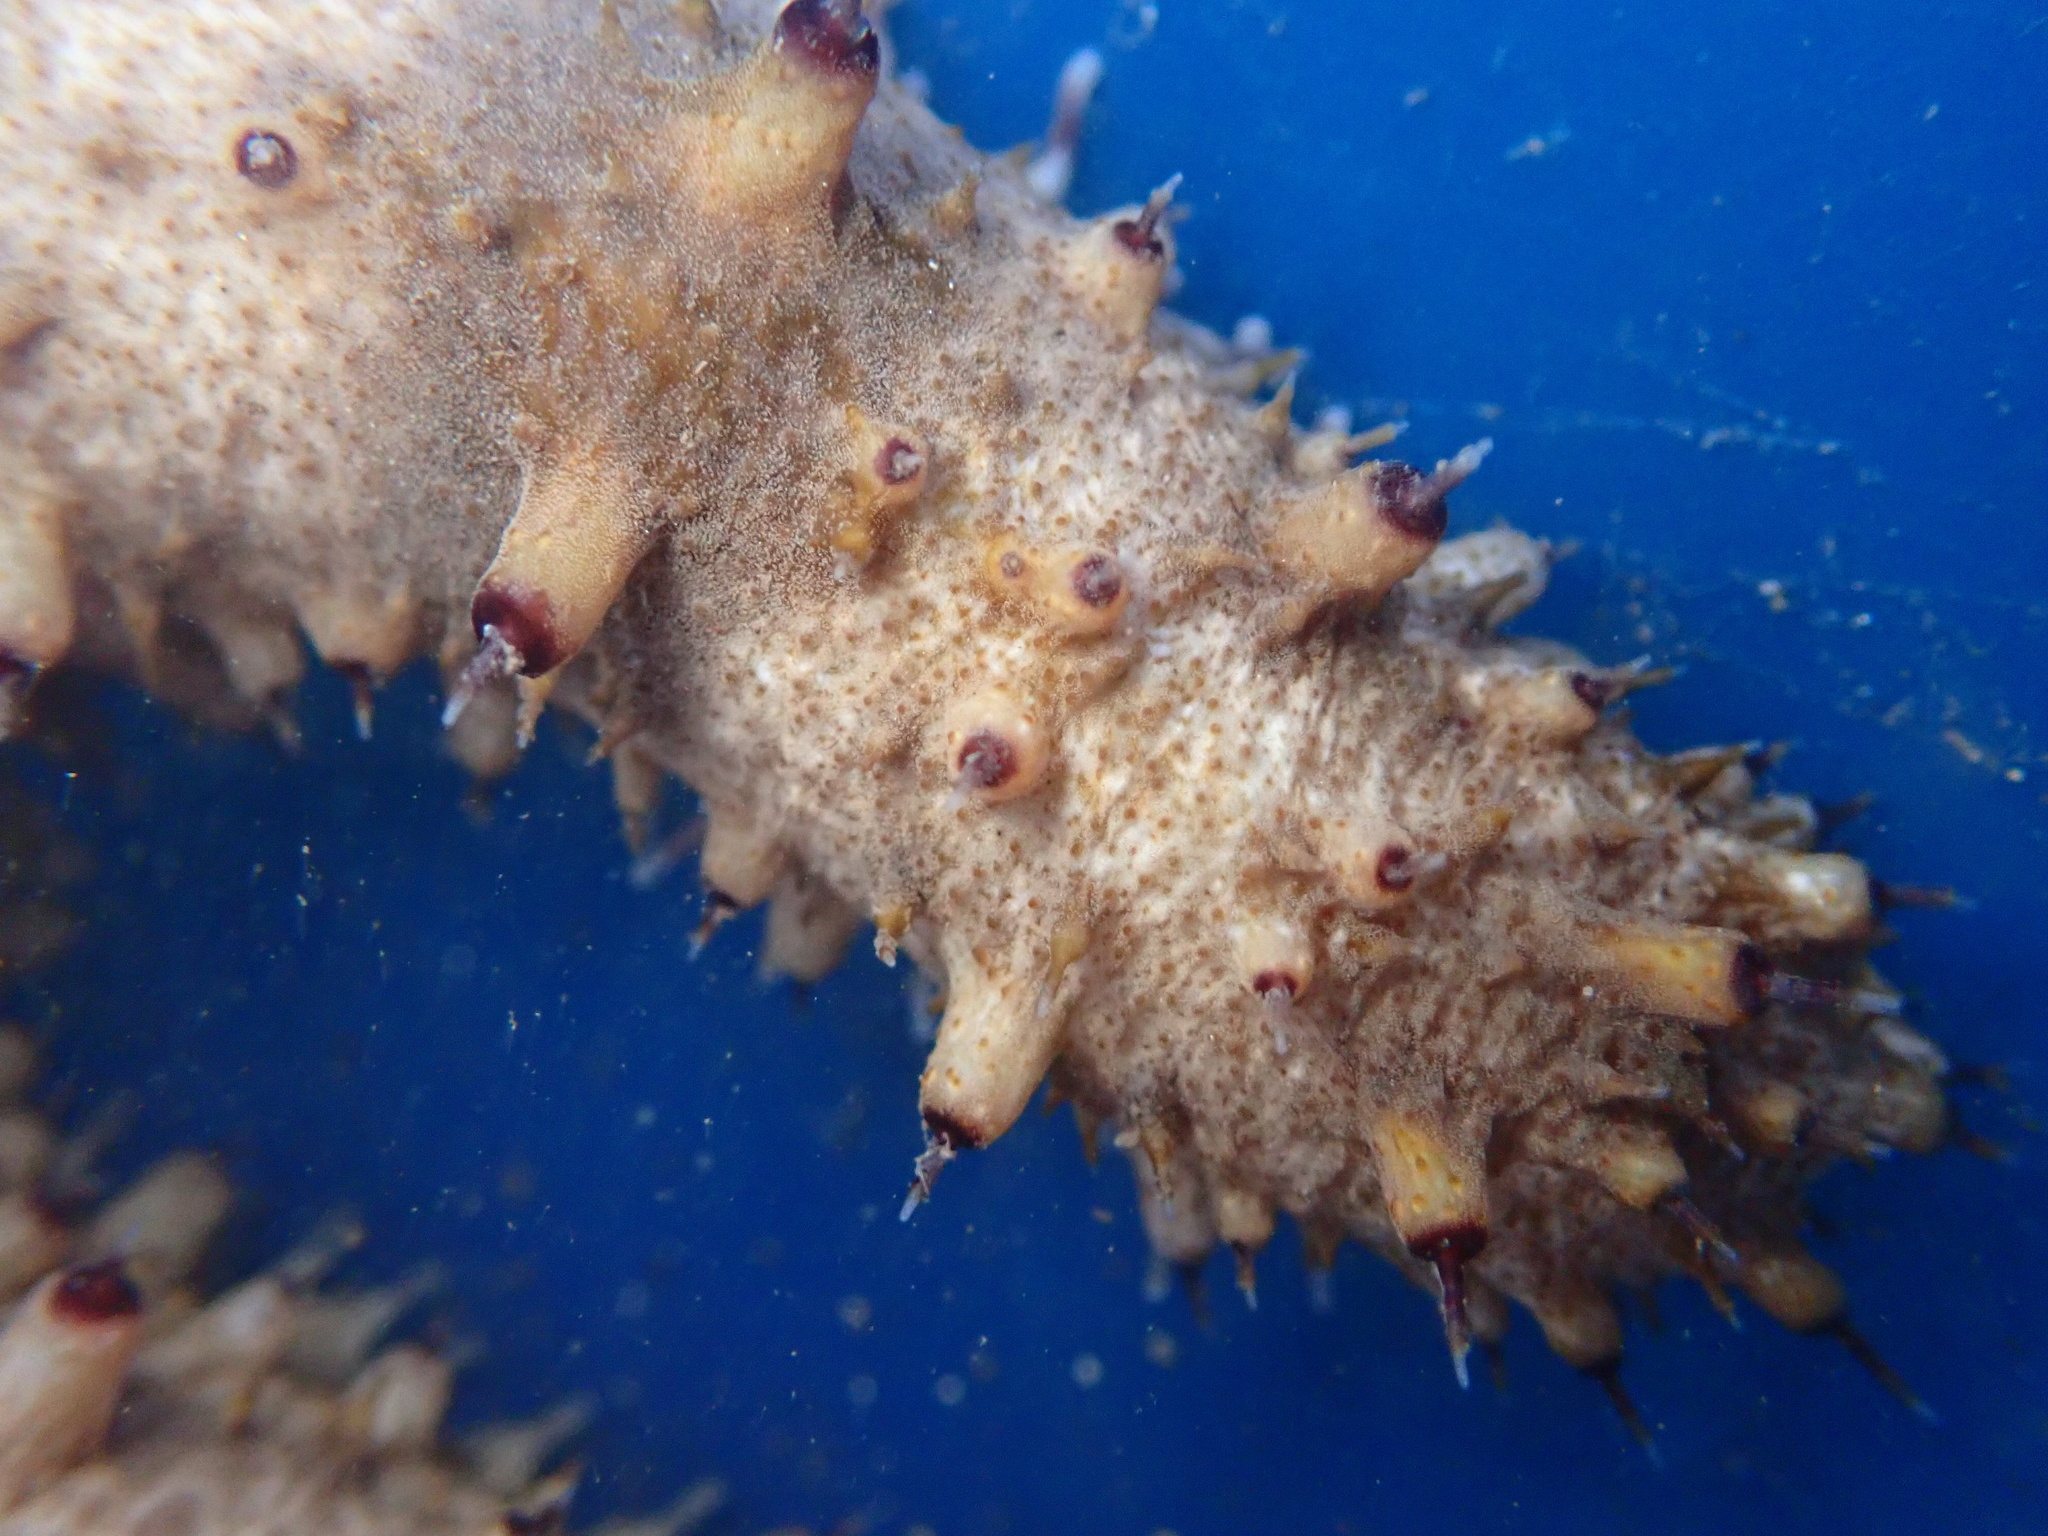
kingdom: Animalia
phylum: Echinodermata
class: Holothuroidea
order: Holothuriida
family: Holothuriidae
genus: Holothuria
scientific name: Holothuria pervicax
